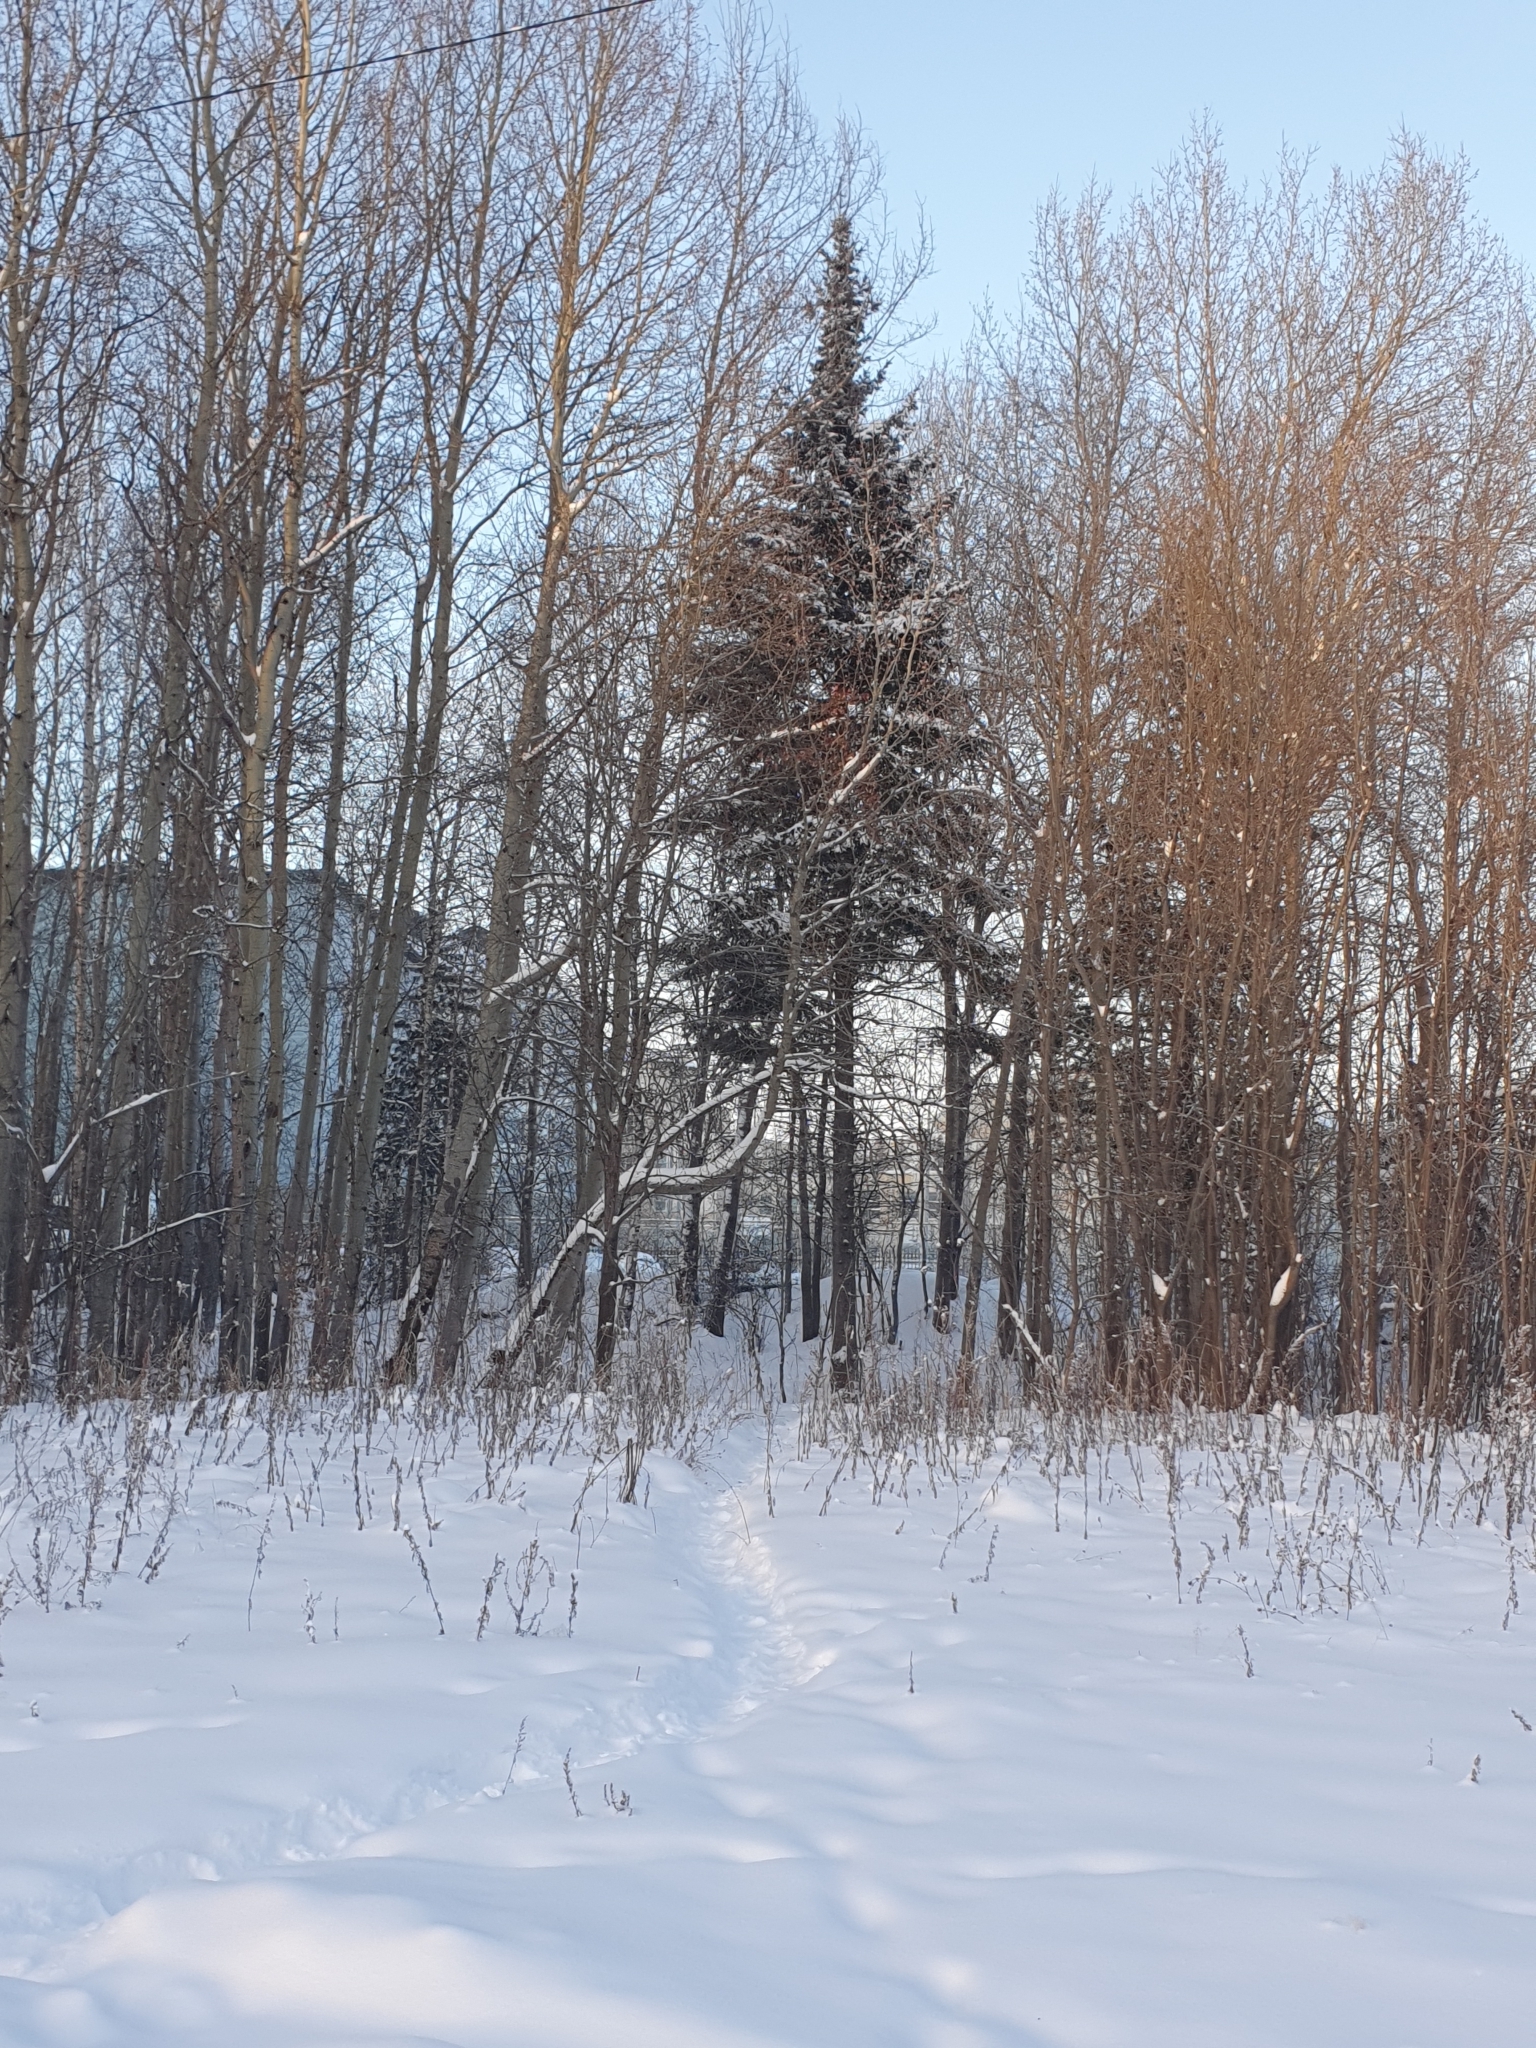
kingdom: Plantae
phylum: Tracheophyta
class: Pinopsida
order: Pinales
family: Pinaceae
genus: Picea
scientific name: Picea obovata
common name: Siberian spruce
